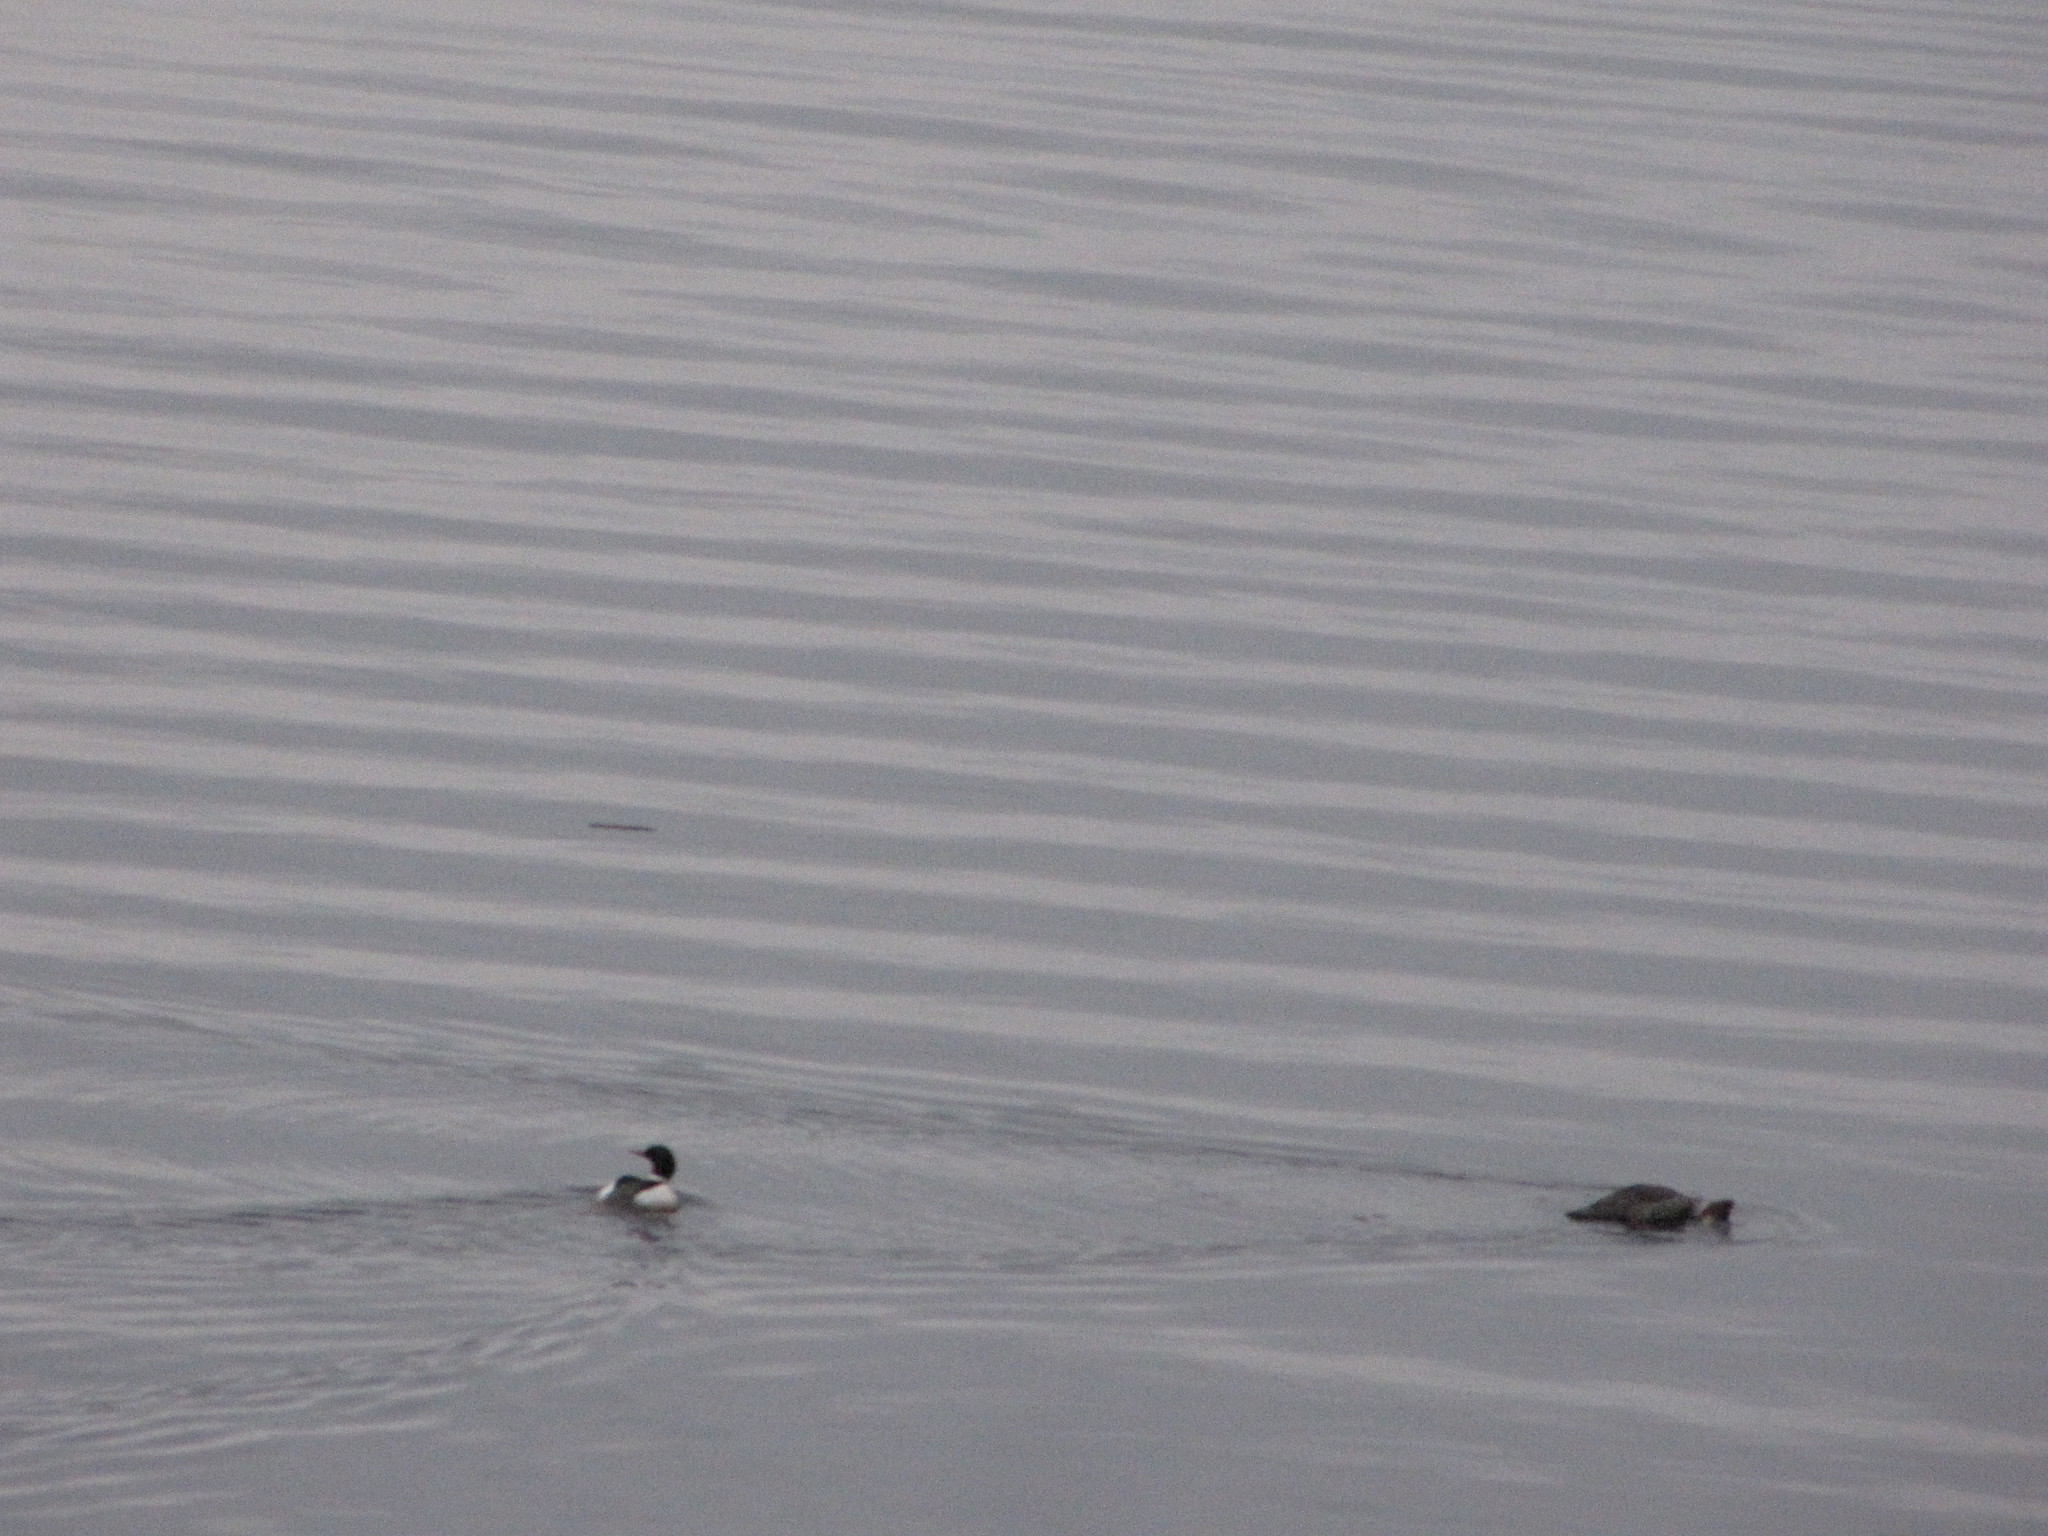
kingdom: Animalia
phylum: Chordata
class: Aves
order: Anseriformes
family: Anatidae
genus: Mergus
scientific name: Mergus merganser
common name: Common merganser
